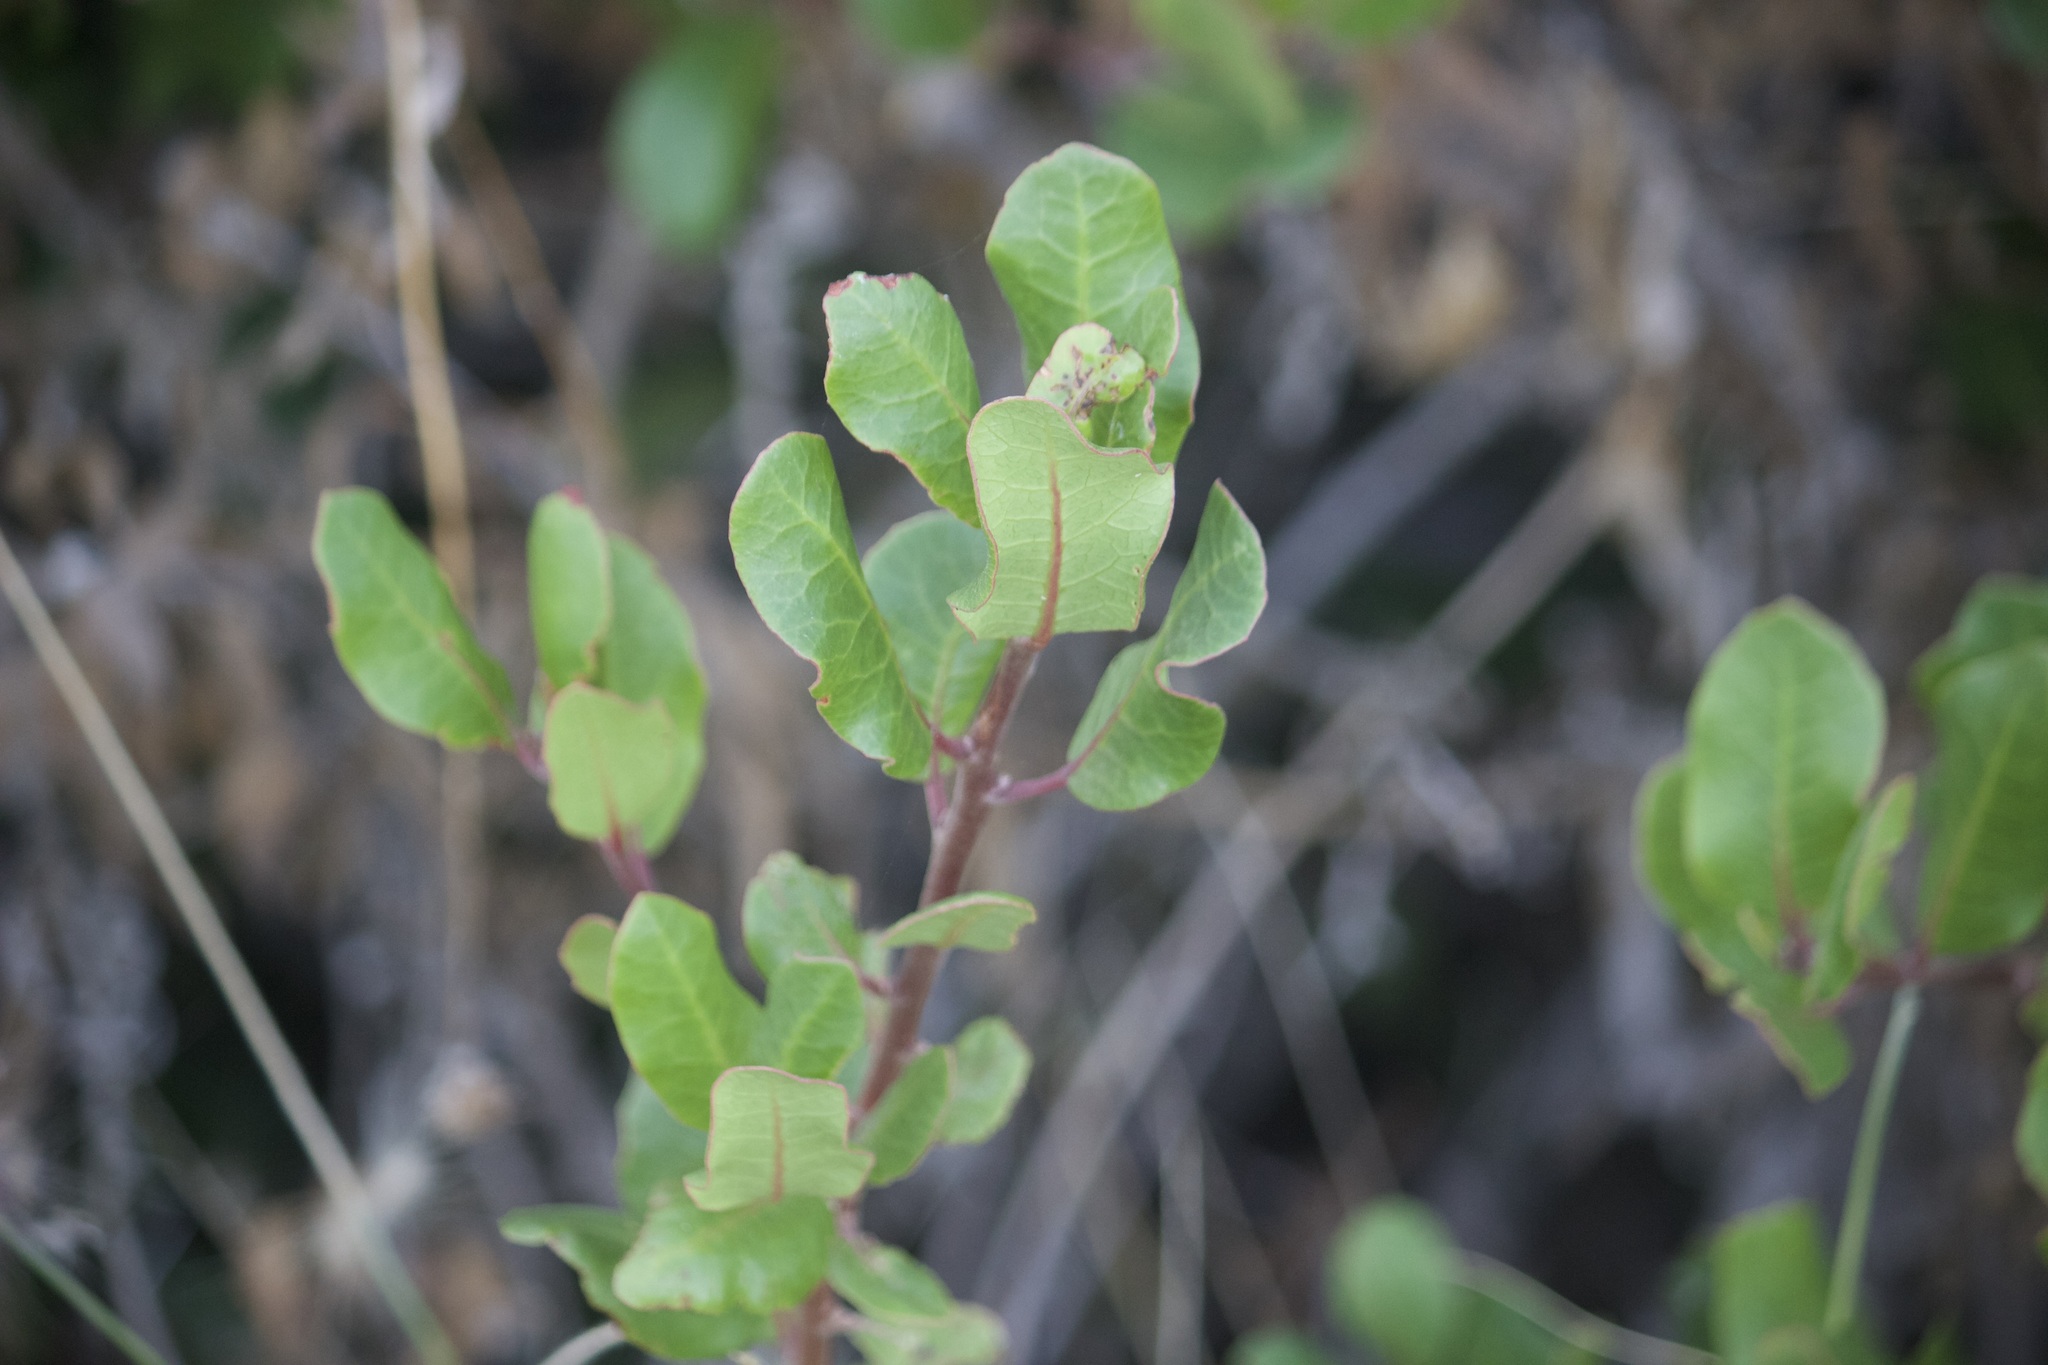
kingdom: Plantae
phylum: Tracheophyta
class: Magnoliopsida
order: Sapindales
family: Anacardiaceae
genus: Rhus
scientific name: Rhus integrifolia
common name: Lemonade sumac
